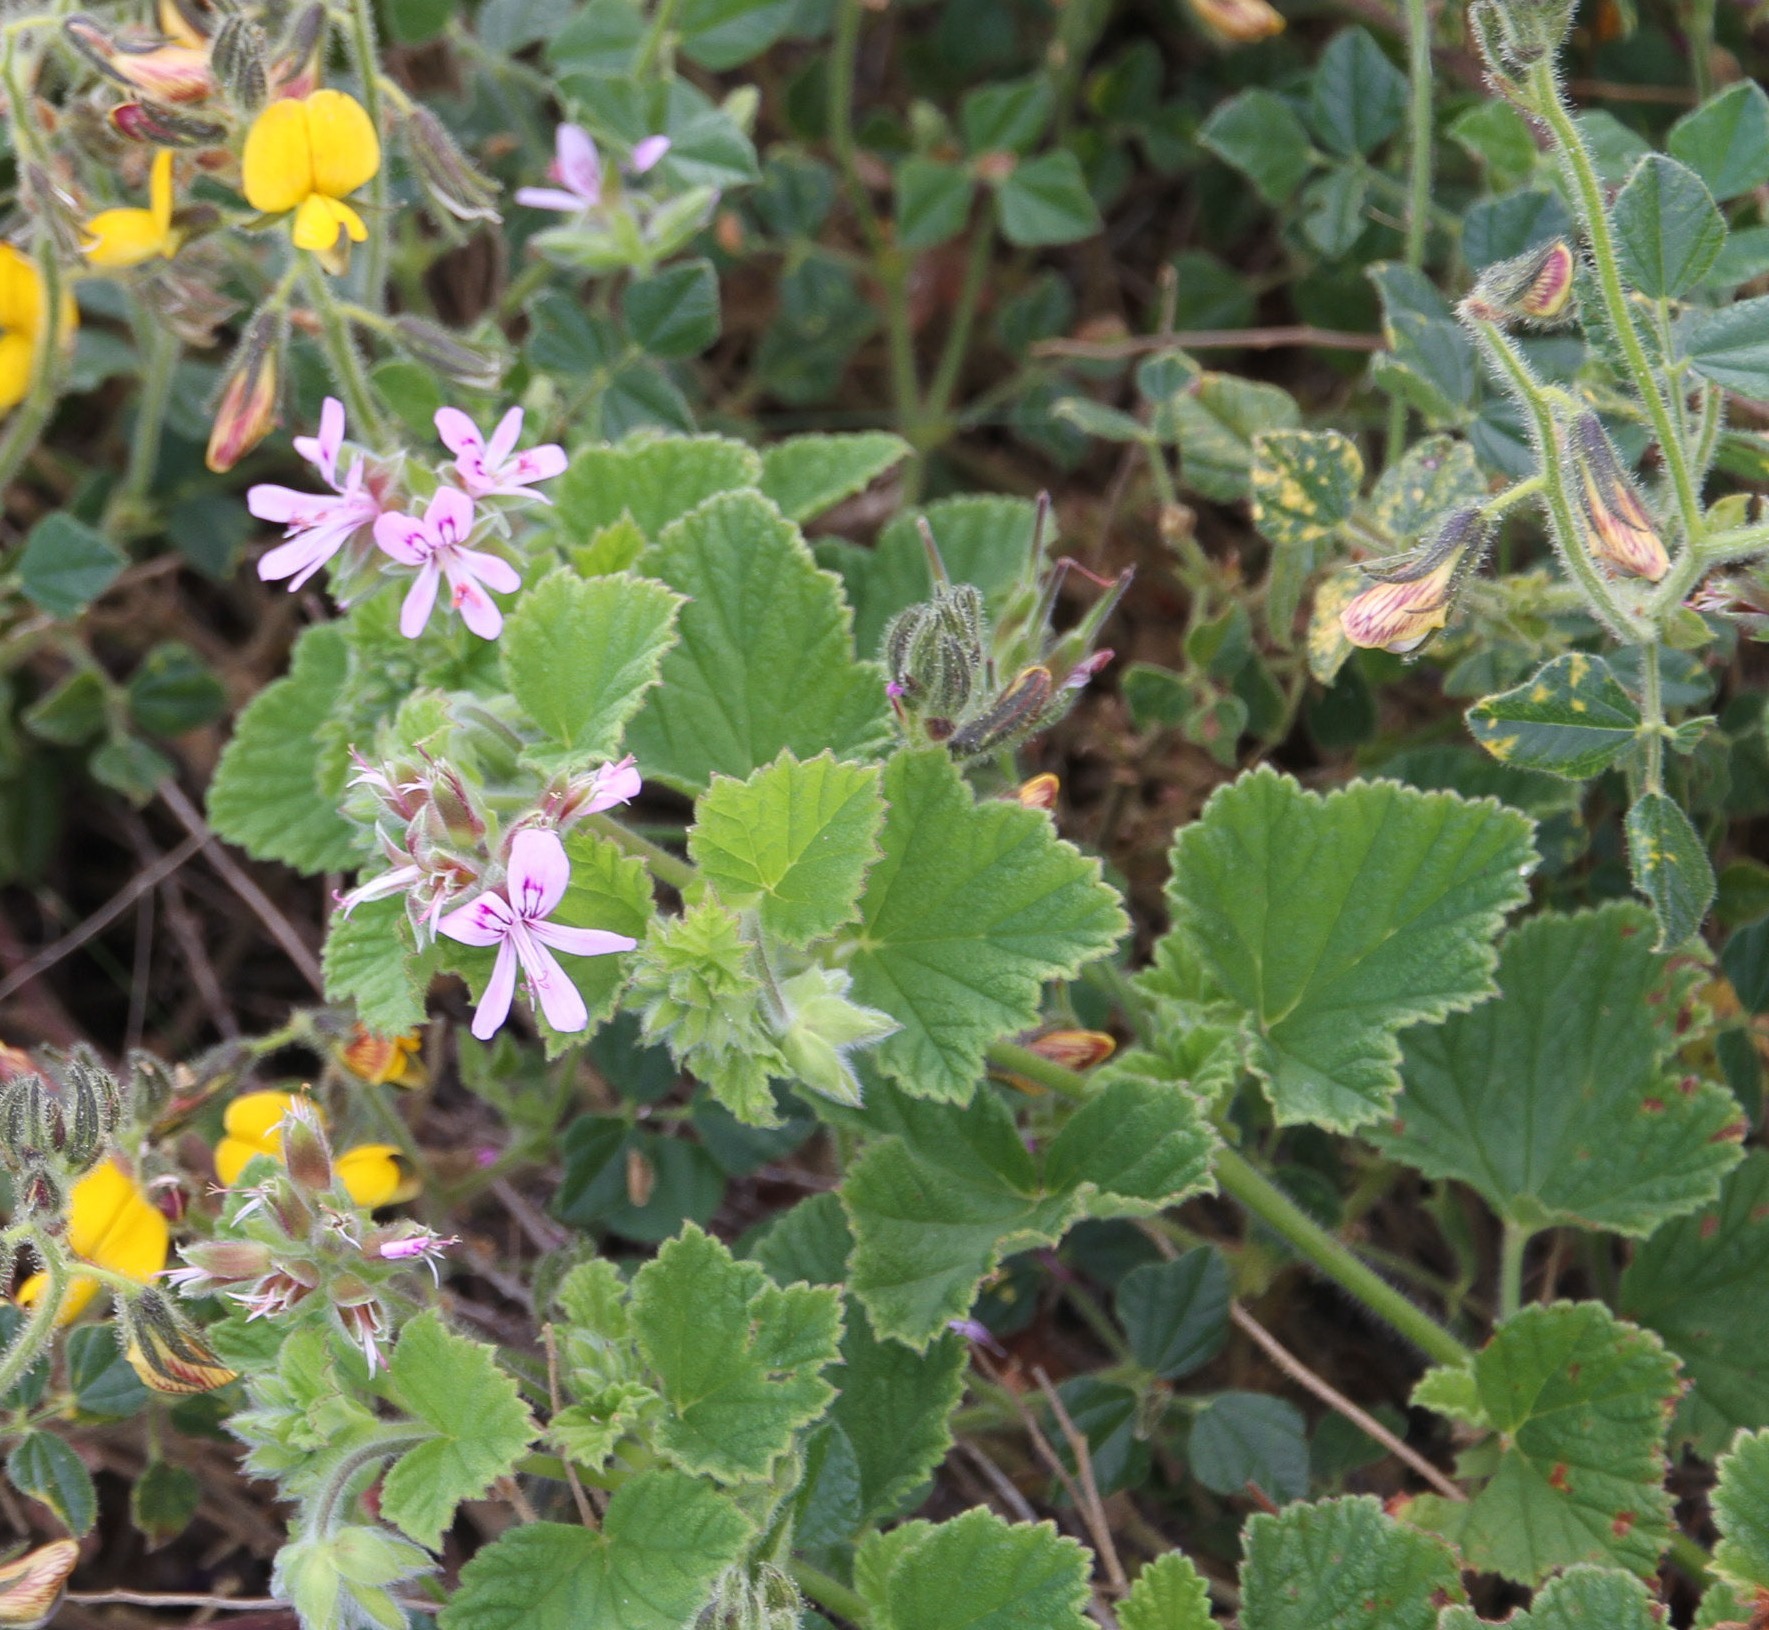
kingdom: Plantae
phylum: Tracheophyta
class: Magnoliopsida
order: Geraniales
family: Geraniaceae
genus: Pelargonium
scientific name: Pelargonium vitifolium
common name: Grapeleaf geranium
